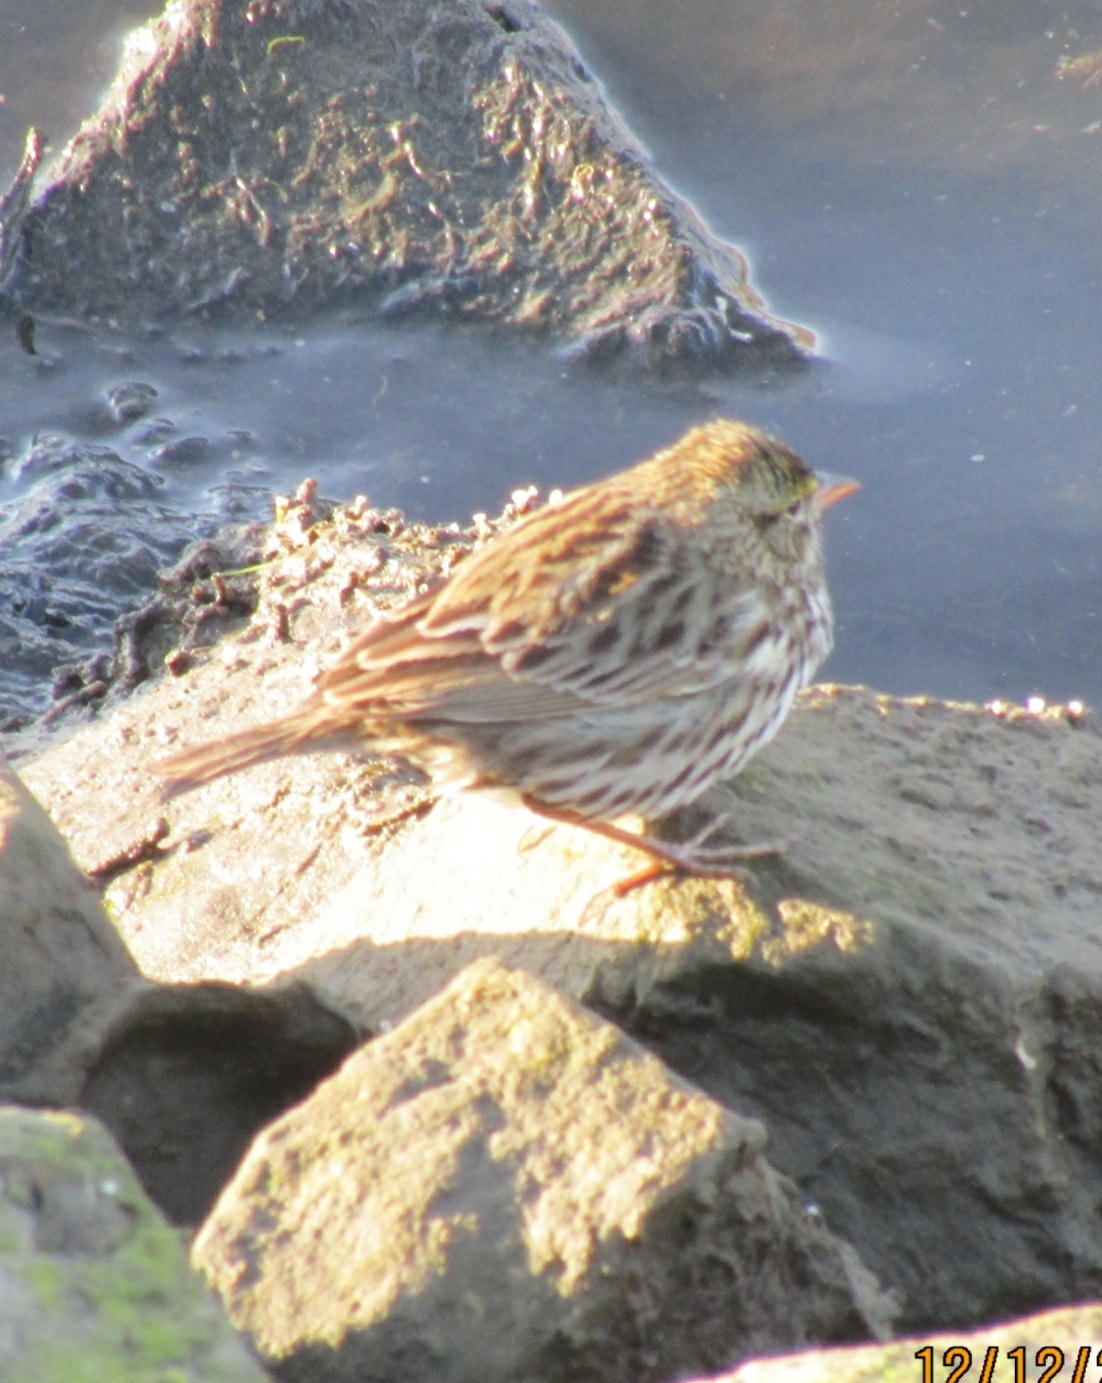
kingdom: Animalia
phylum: Chordata
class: Aves
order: Passeriformes
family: Passerellidae
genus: Passerculus
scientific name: Passerculus sandwichensis
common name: Savannah sparrow
